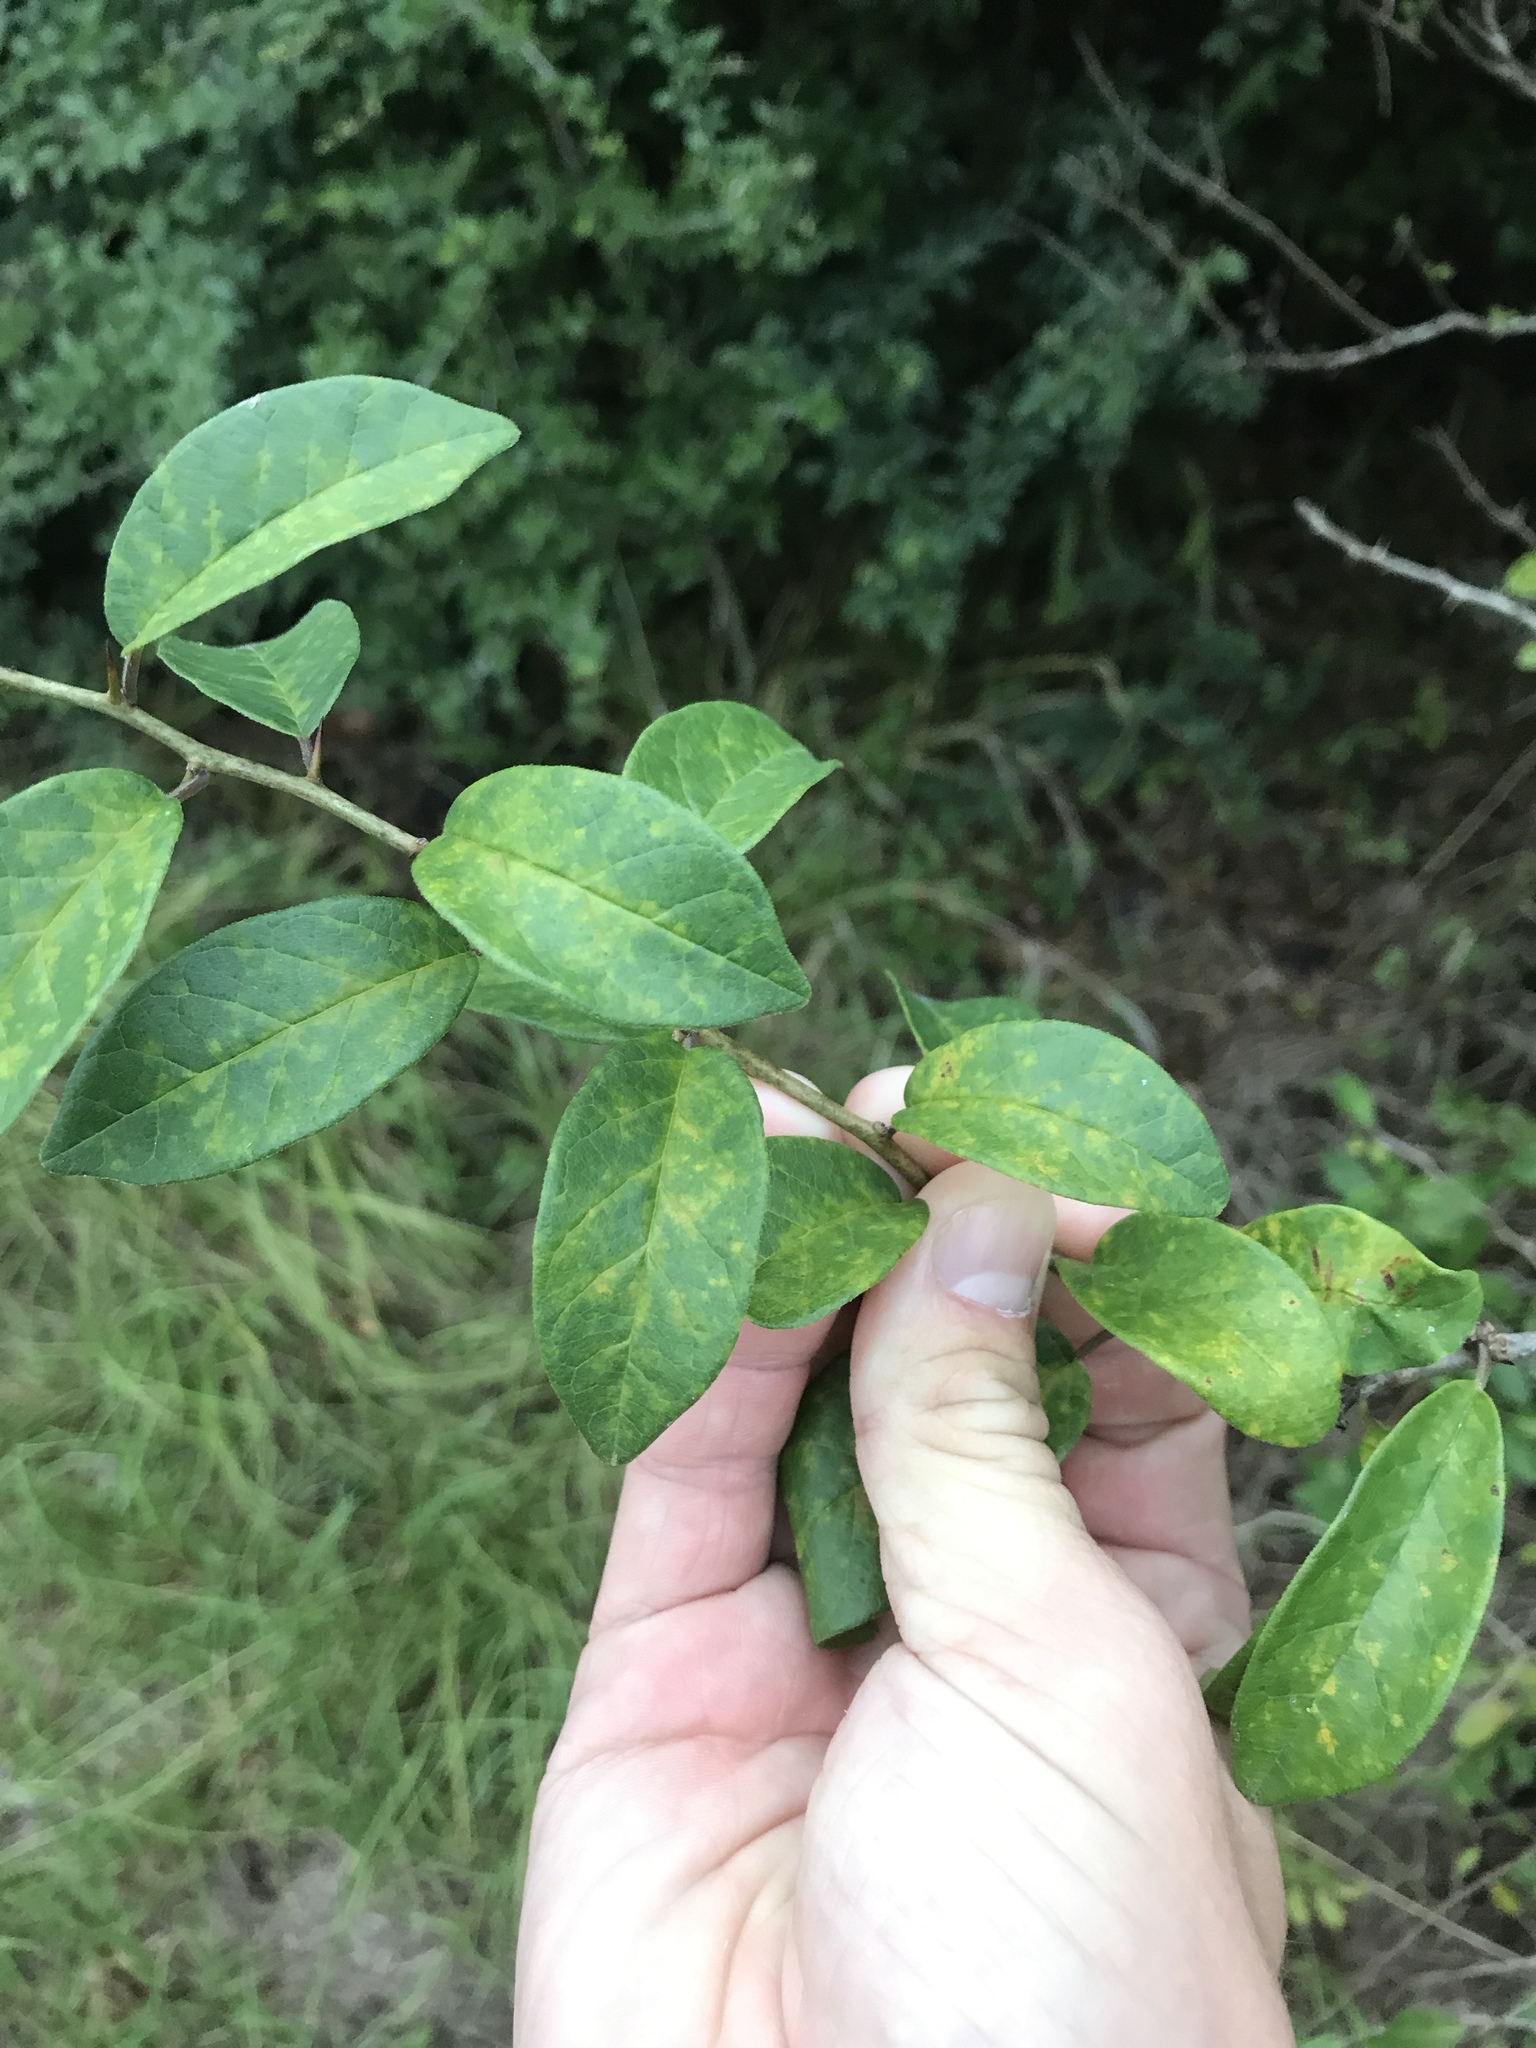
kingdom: Plantae
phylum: Tracheophyta
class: Magnoliopsida
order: Rosales
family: Moraceae
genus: Maclura
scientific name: Maclura pomifera
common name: Osage-orange
